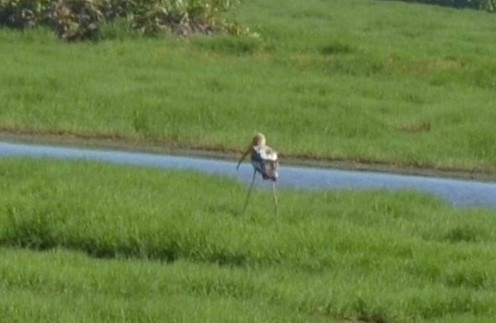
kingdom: Animalia
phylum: Chordata
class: Aves
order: Ciconiiformes
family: Ciconiidae
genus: Mycteria
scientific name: Mycteria leucocephala
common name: Painted stork
